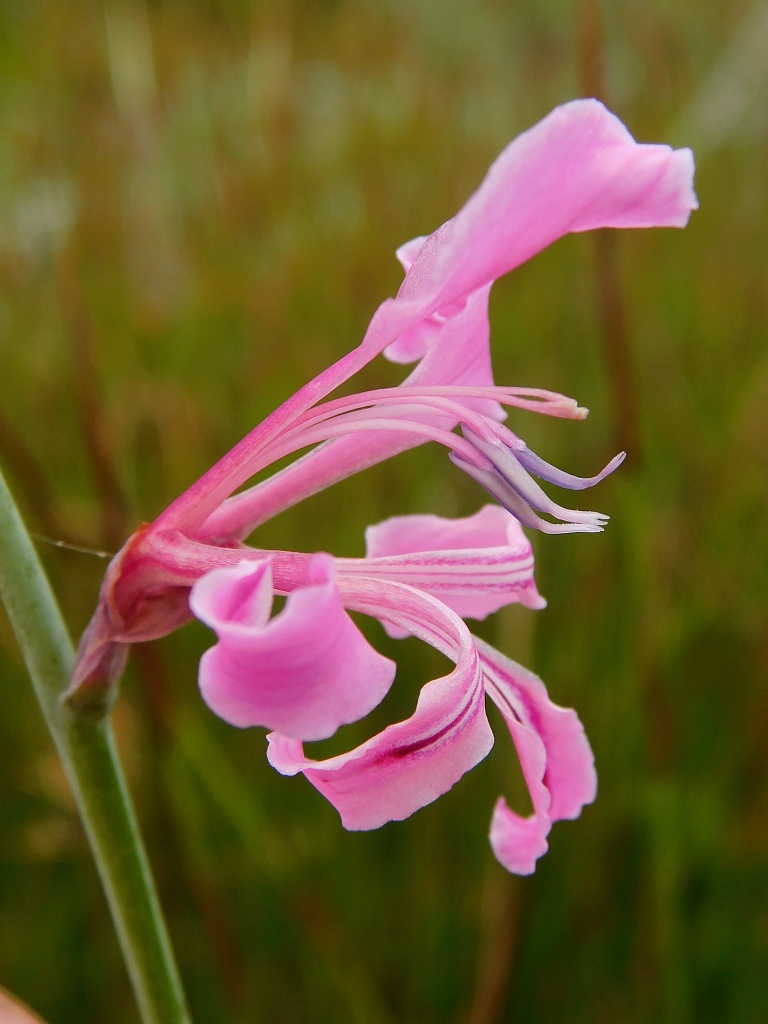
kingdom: Plantae
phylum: Tracheophyta
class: Liliopsida
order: Asparagales
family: Iridaceae
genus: Tritoniopsis
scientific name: Tritoniopsis lata
